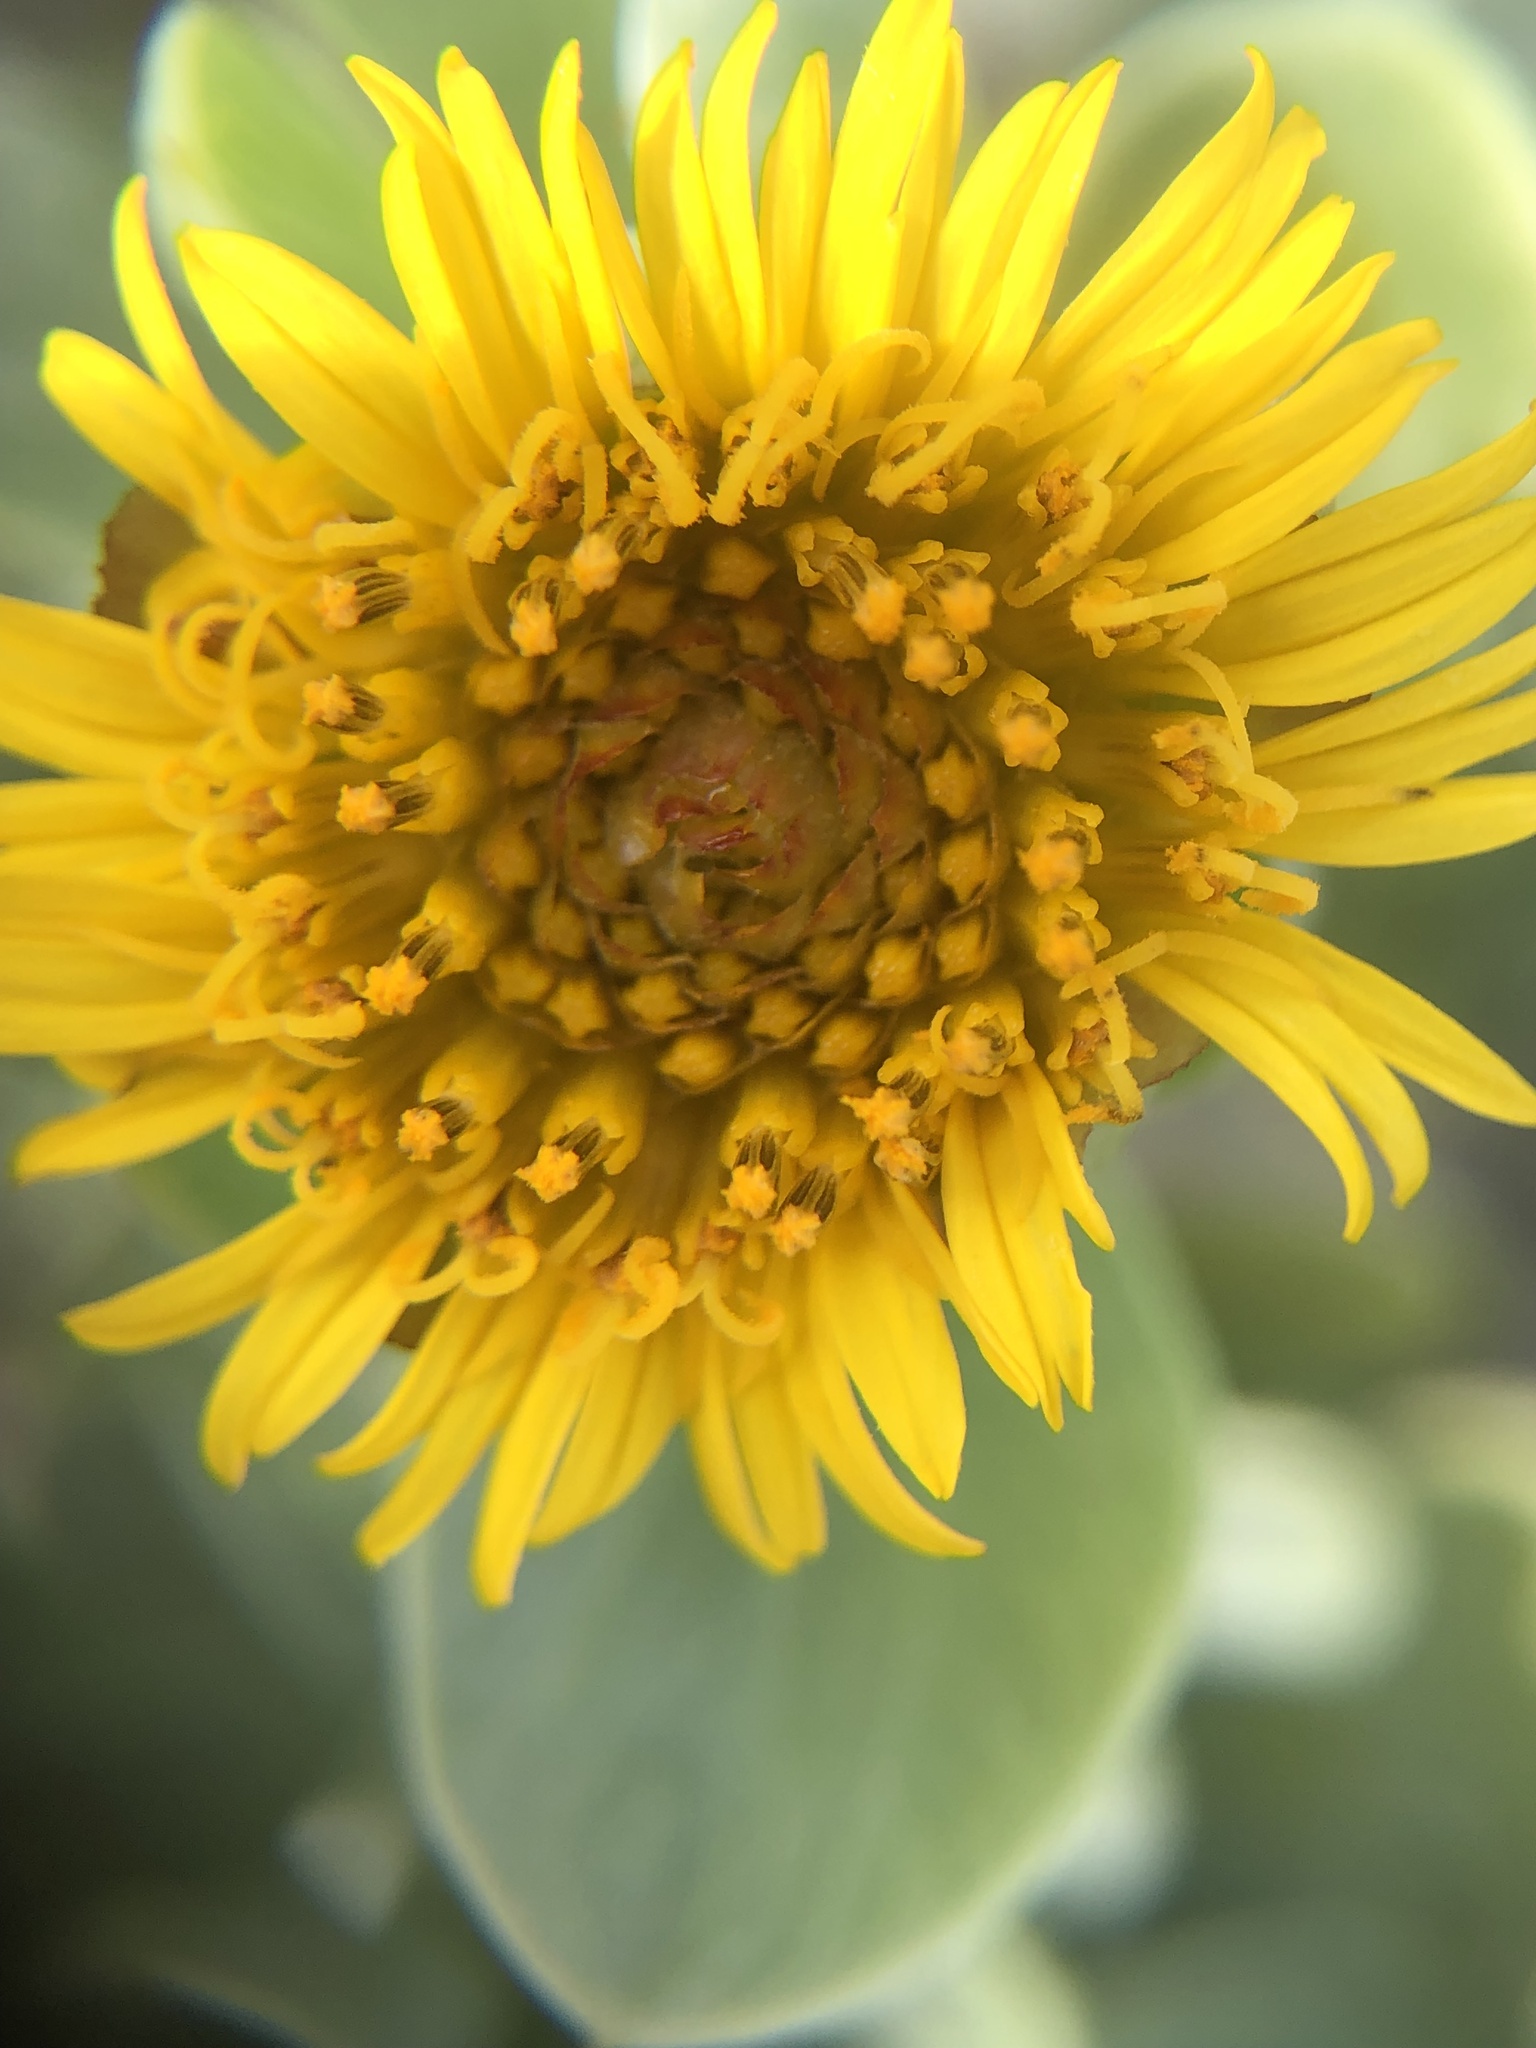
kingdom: Plantae
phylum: Tracheophyta
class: Magnoliopsida
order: Asterales
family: Asteraceae
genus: Borrichia
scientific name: Borrichia arborescens
